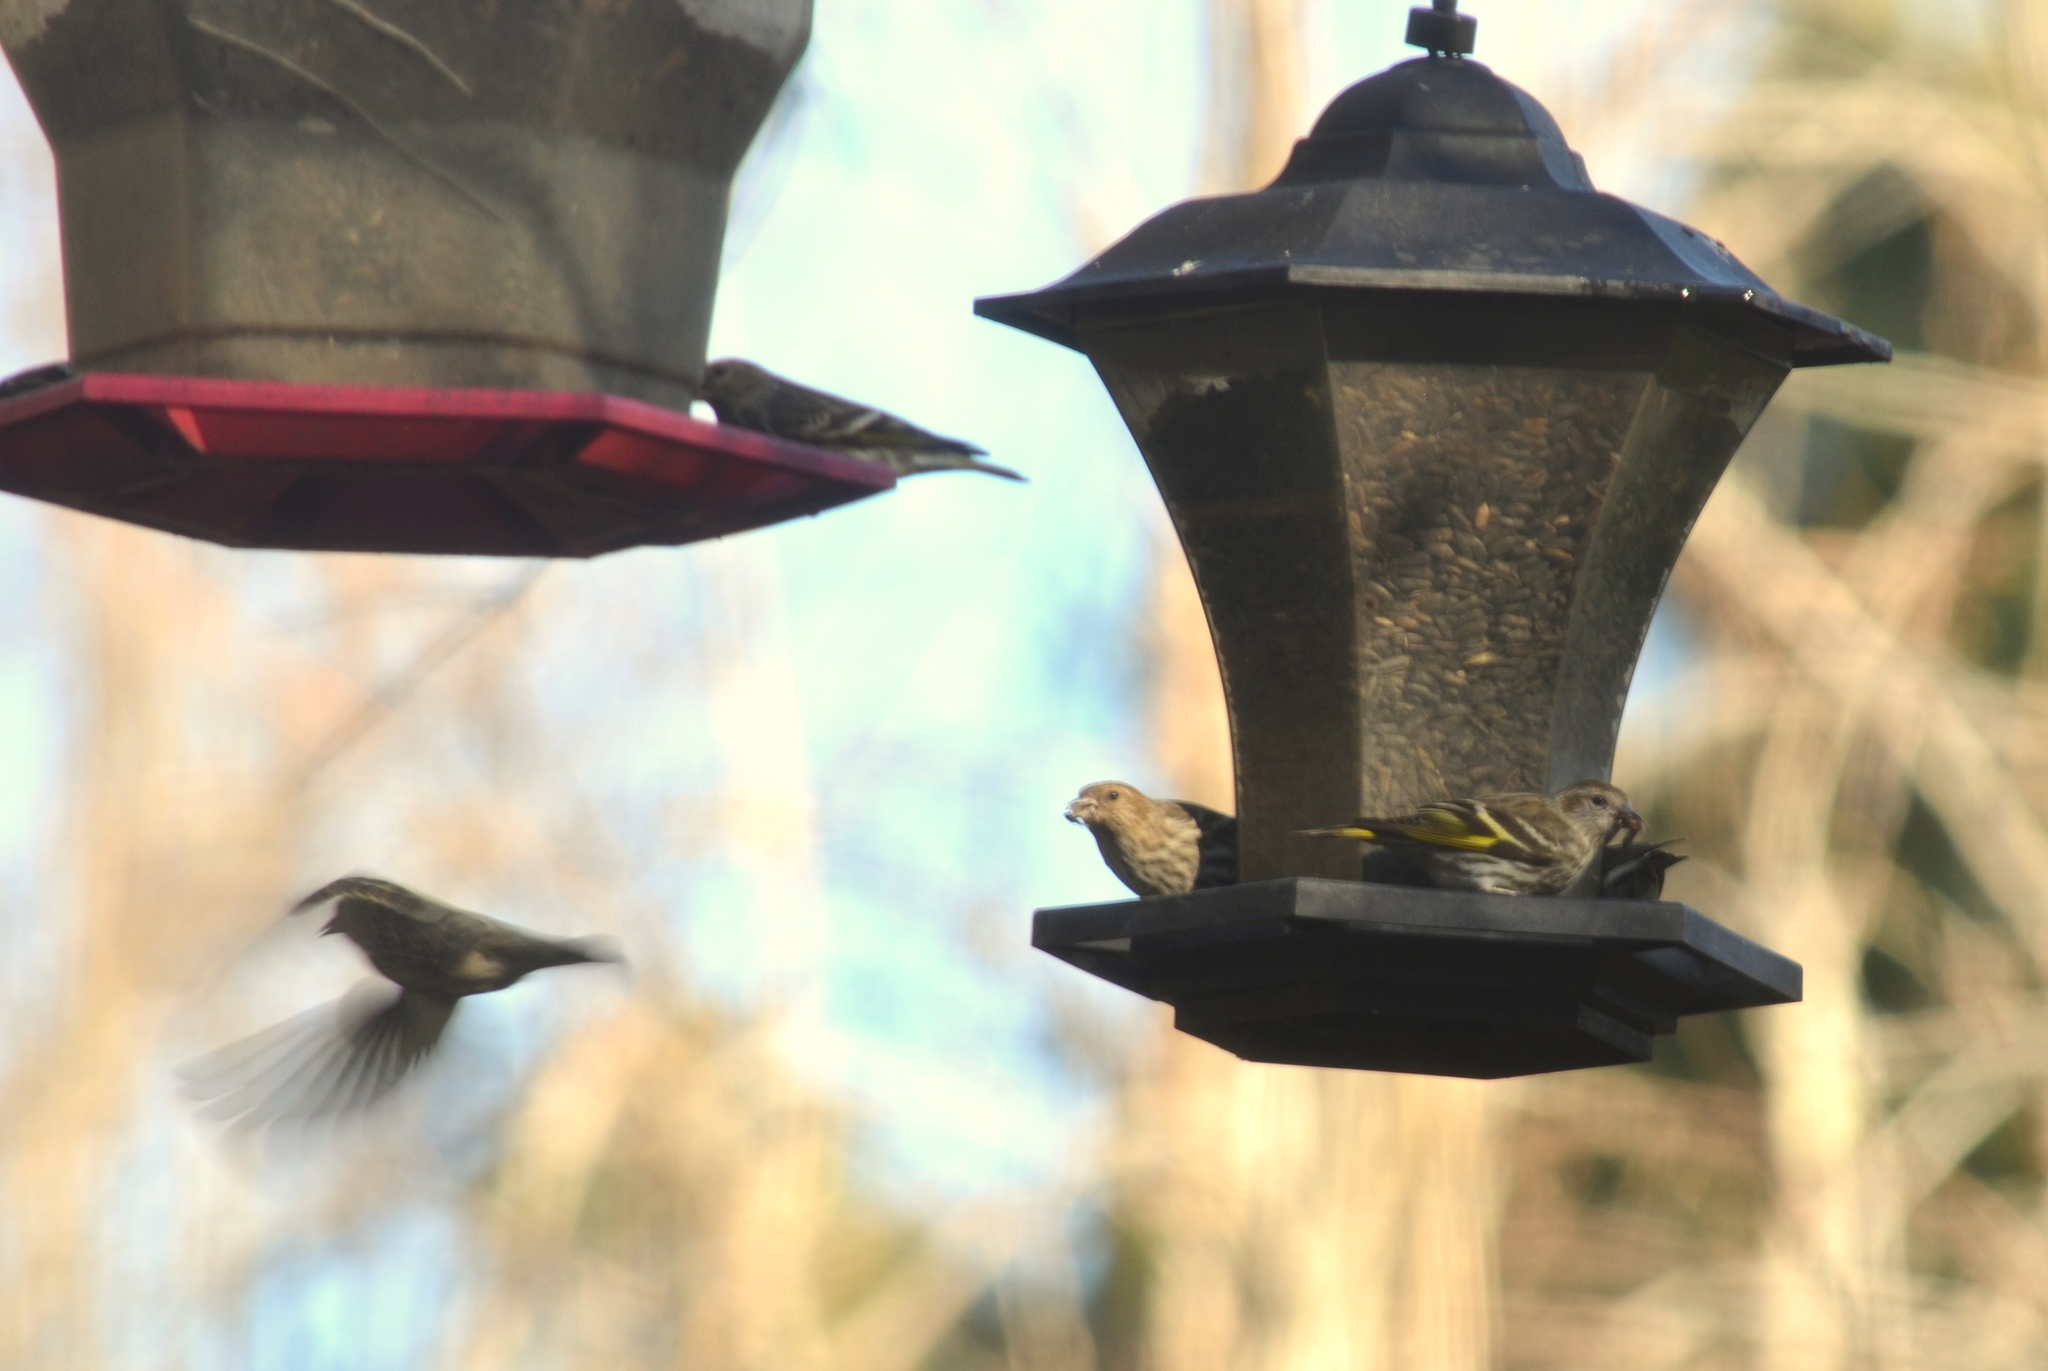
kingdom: Animalia
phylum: Chordata
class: Aves
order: Passeriformes
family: Fringillidae
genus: Spinus
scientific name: Spinus pinus
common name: Pine siskin
